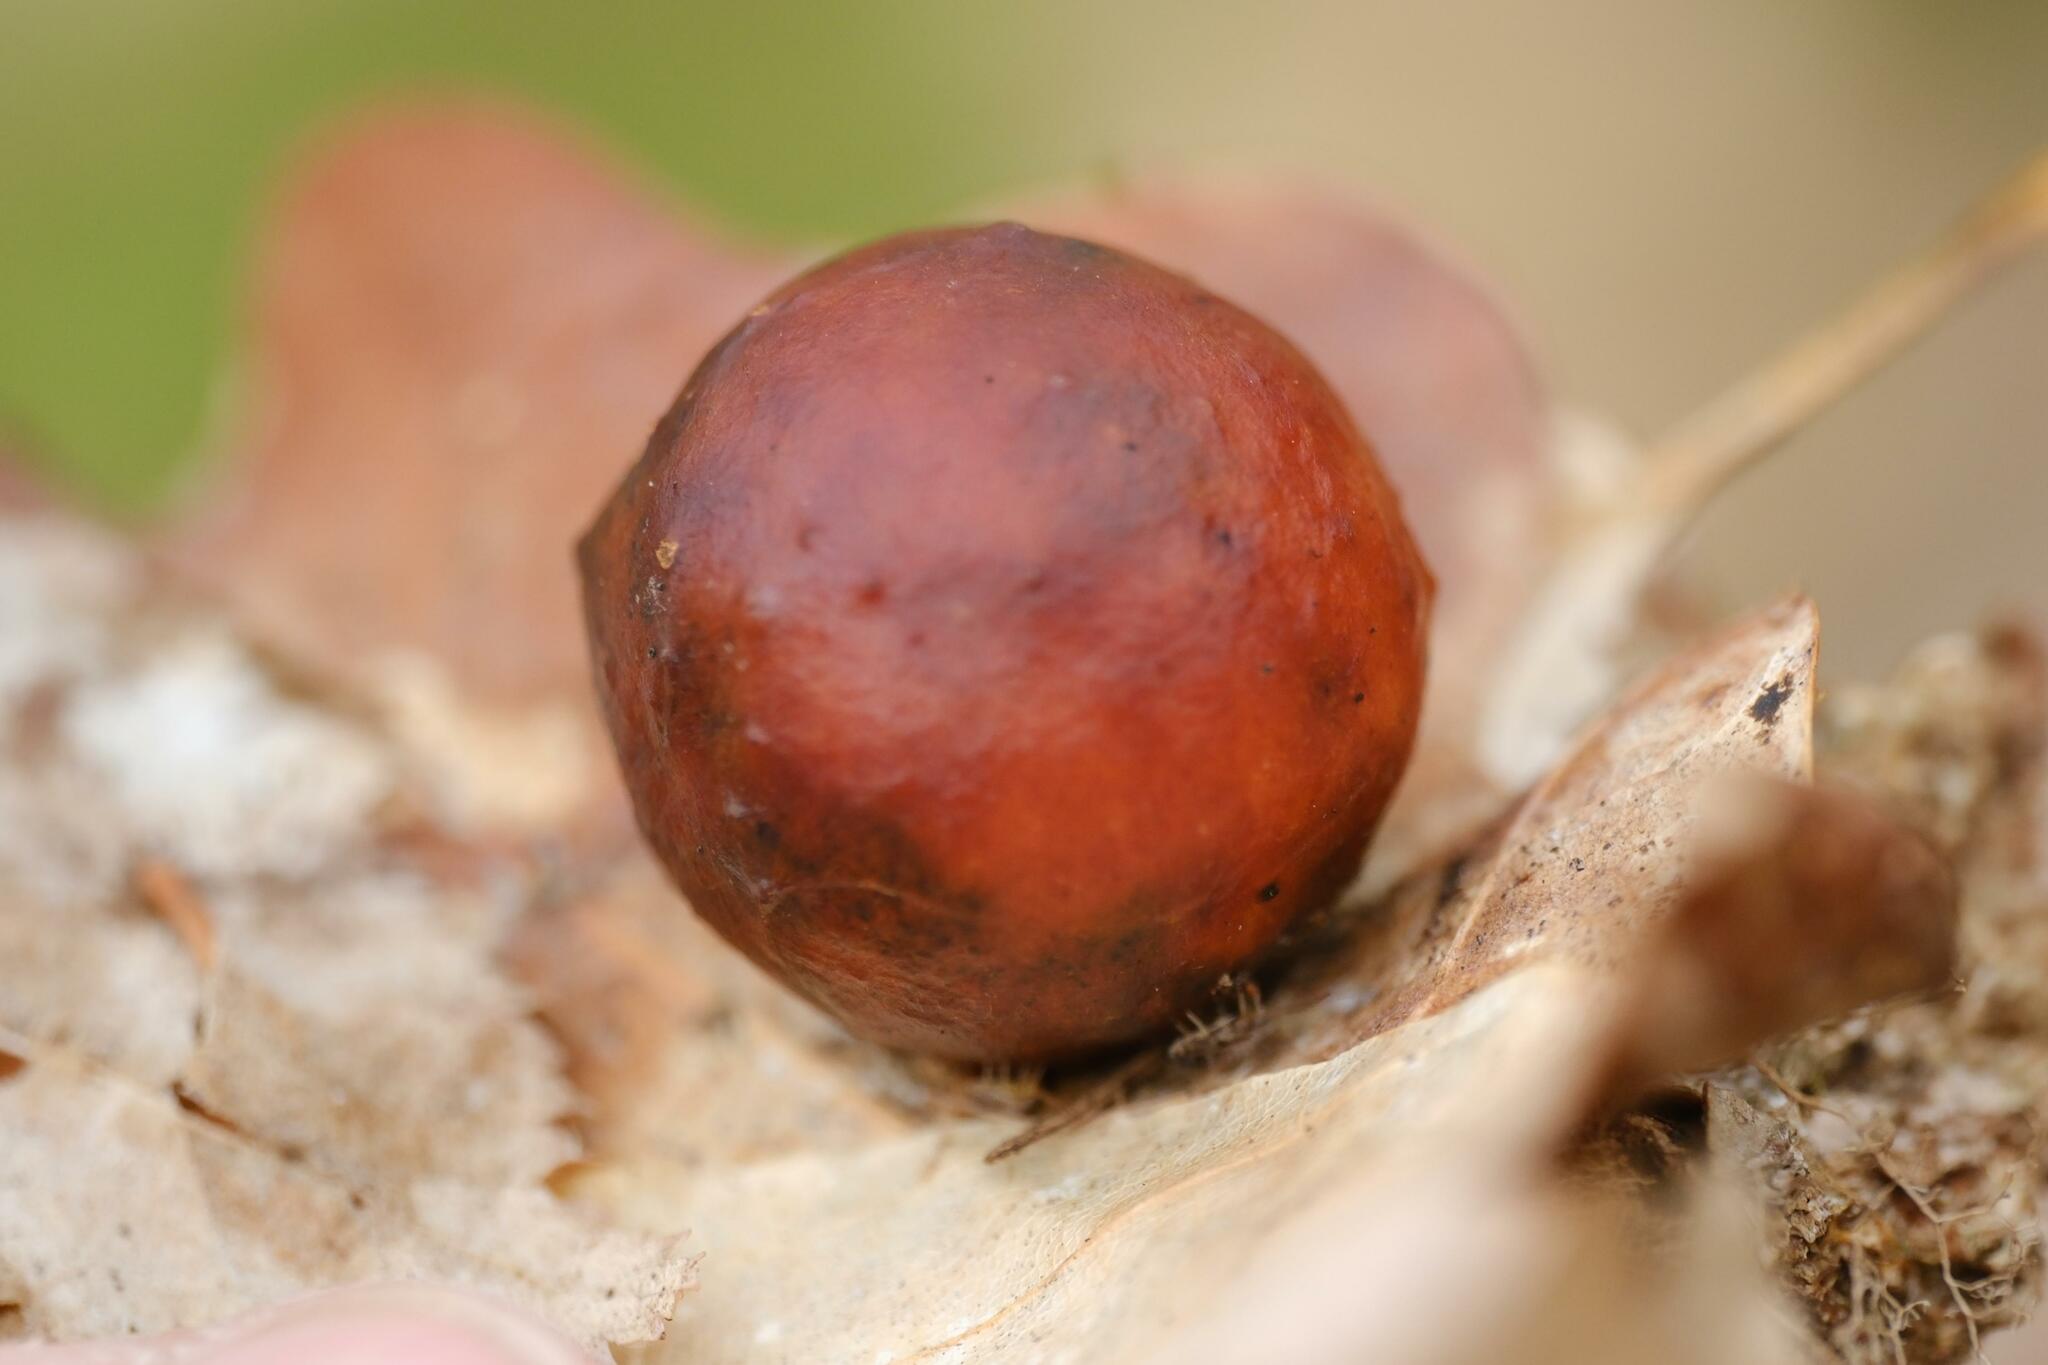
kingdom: Animalia
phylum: Arthropoda
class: Insecta
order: Hymenoptera
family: Cynipidae
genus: Cynips
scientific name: Cynips quercusfolii
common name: Cherry gall
